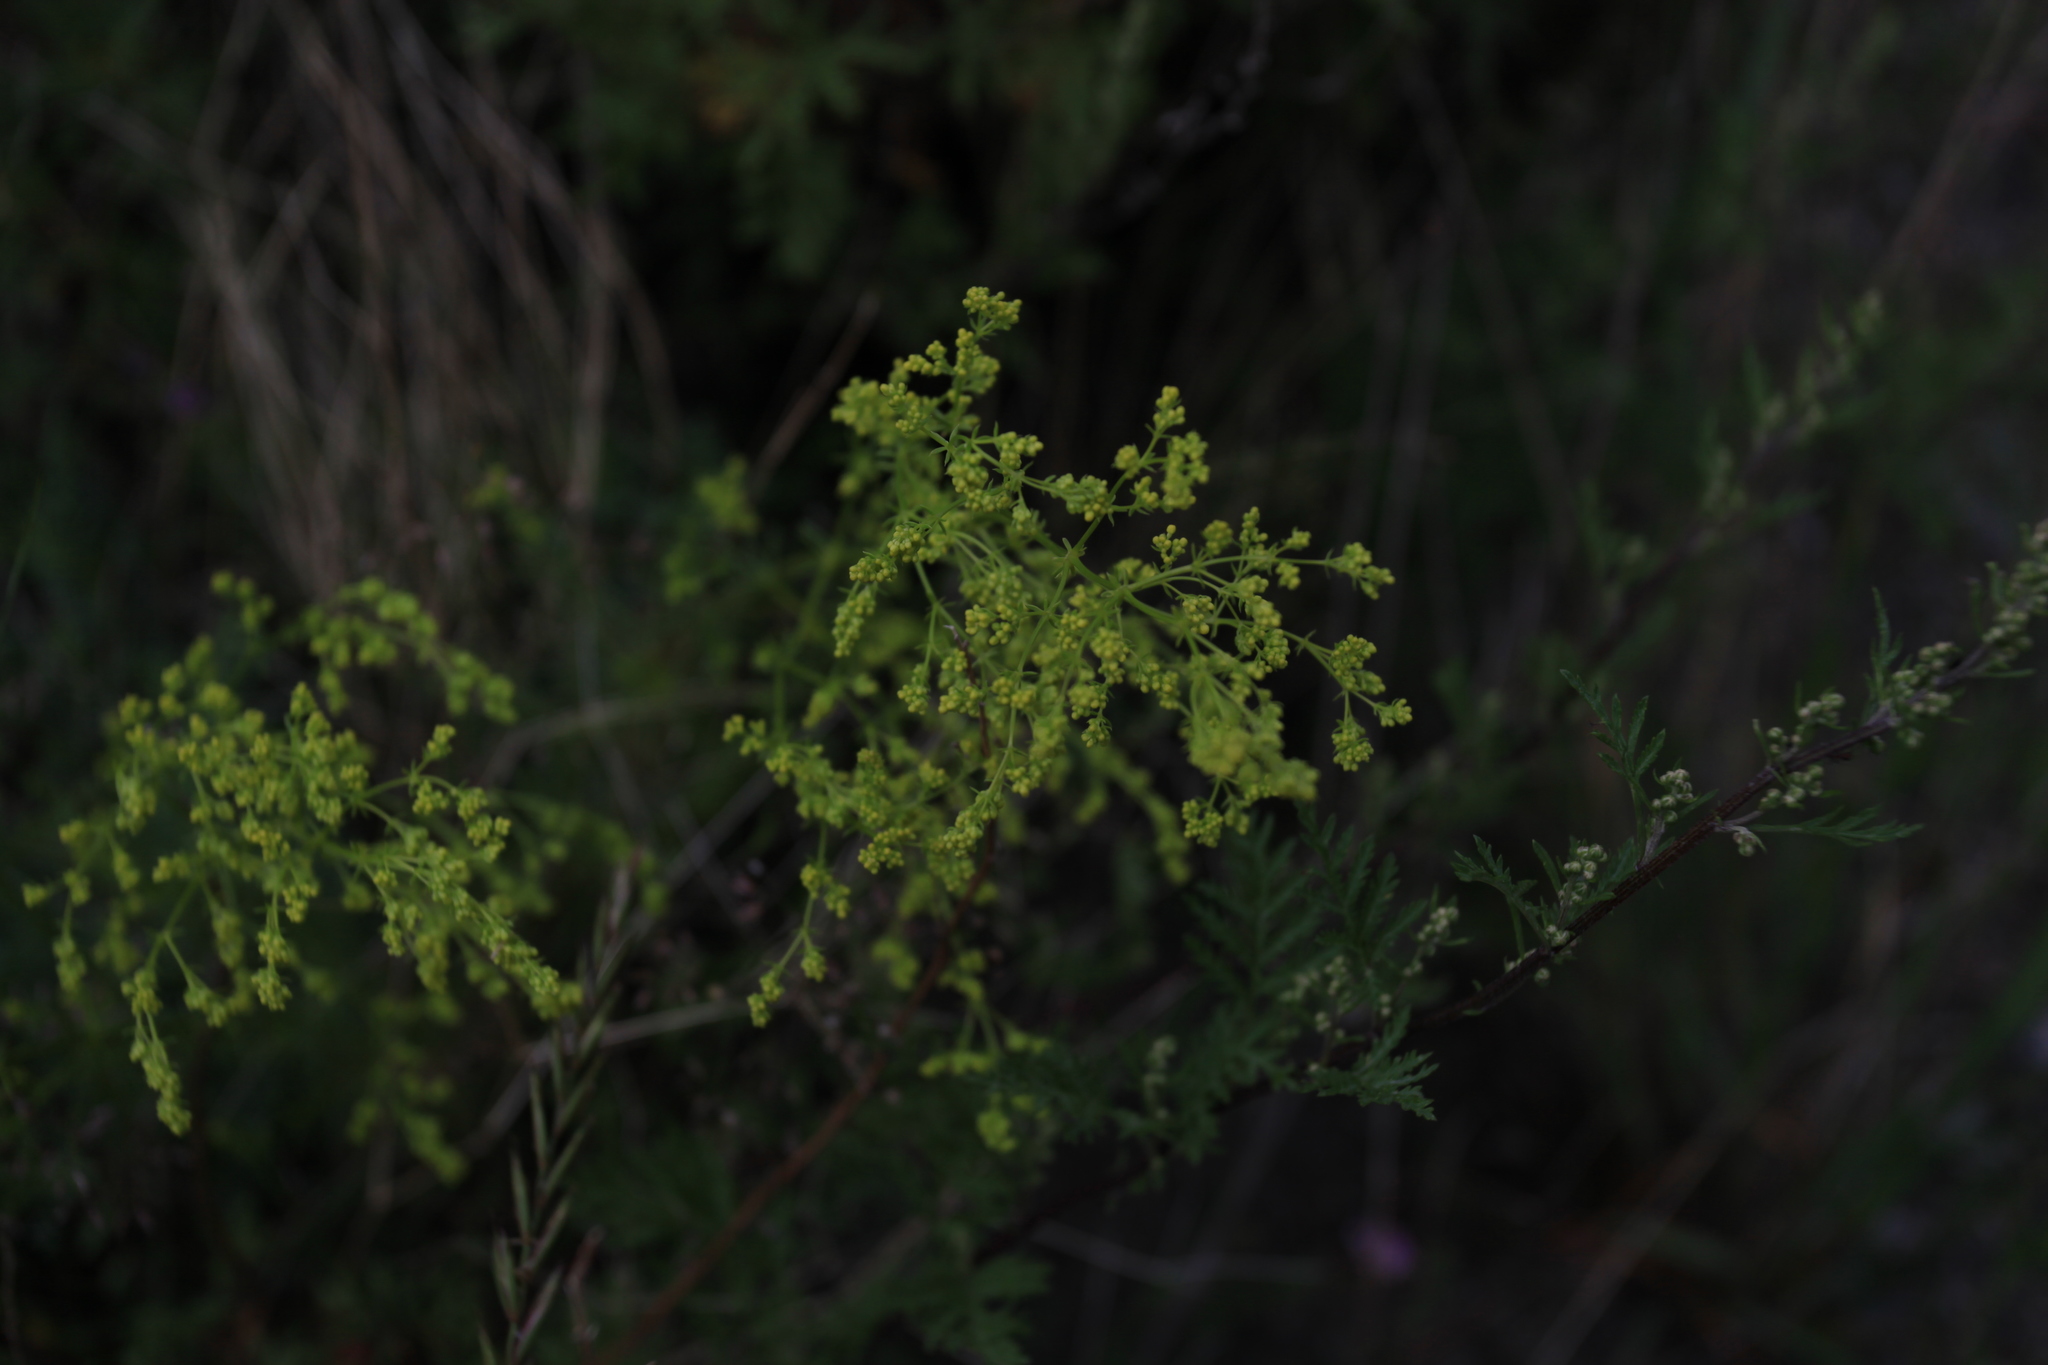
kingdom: Plantae
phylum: Tracheophyta
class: Magnoliopsida
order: Gentianales
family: Rubiaceae
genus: Galium
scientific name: Galium verum
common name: Lady's bedstraw
